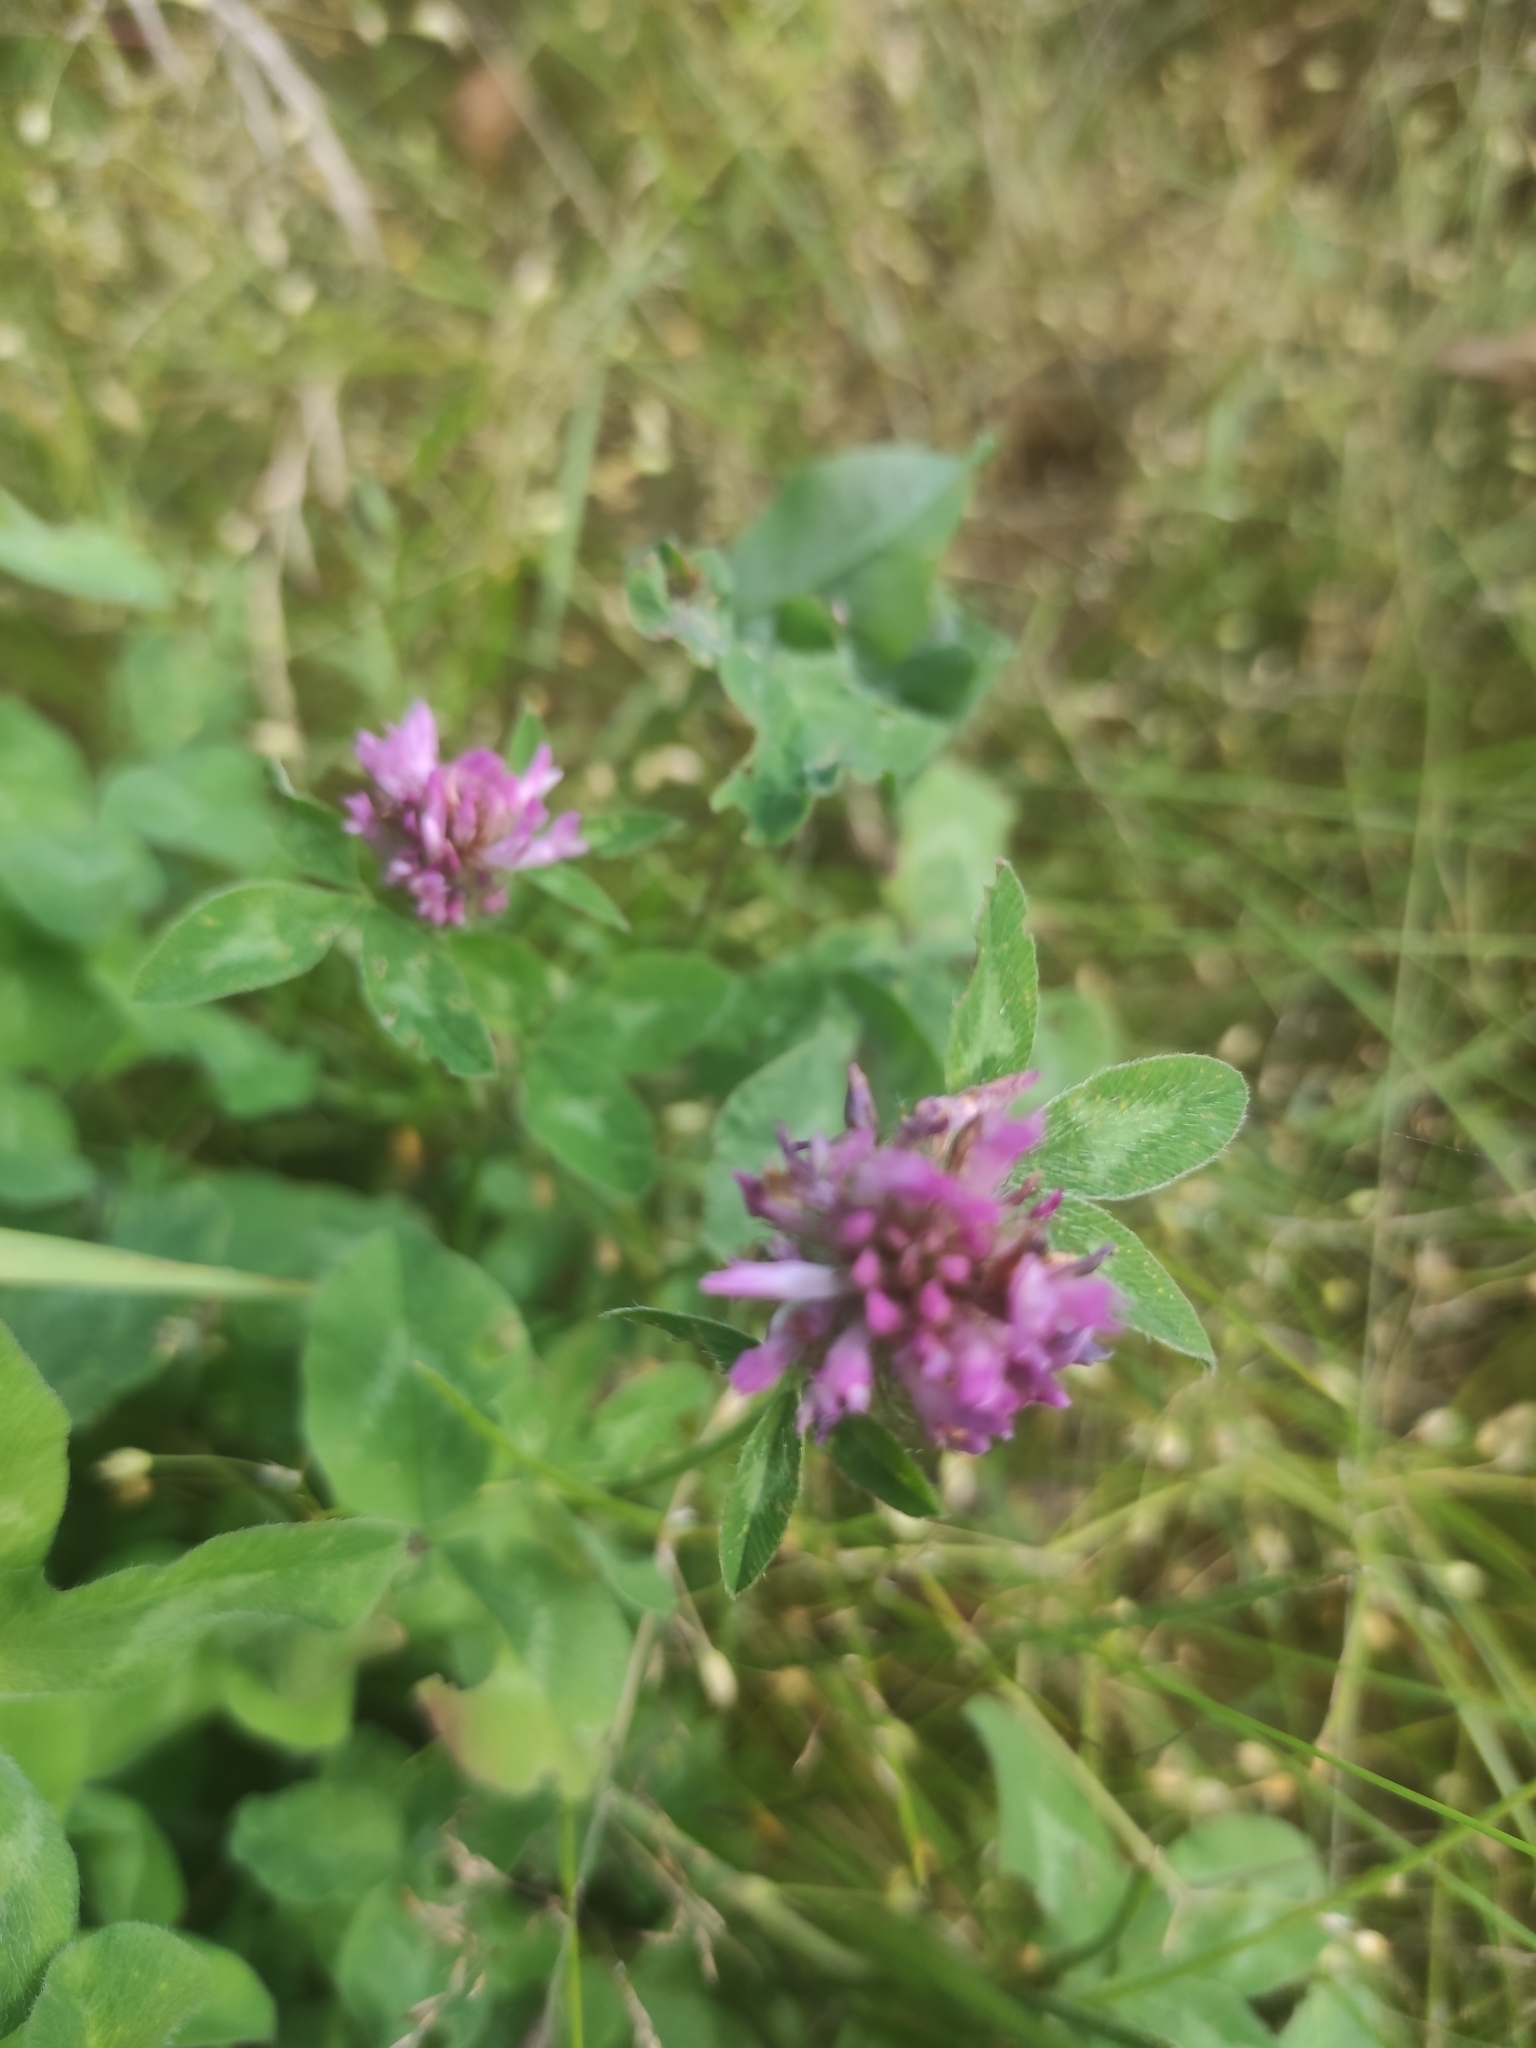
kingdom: Plantae
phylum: Tracheophyta
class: Magnoliopsida
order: Fabales
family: Fabaceae
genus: Trifolium
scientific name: Trifolium pratense
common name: Red clover
